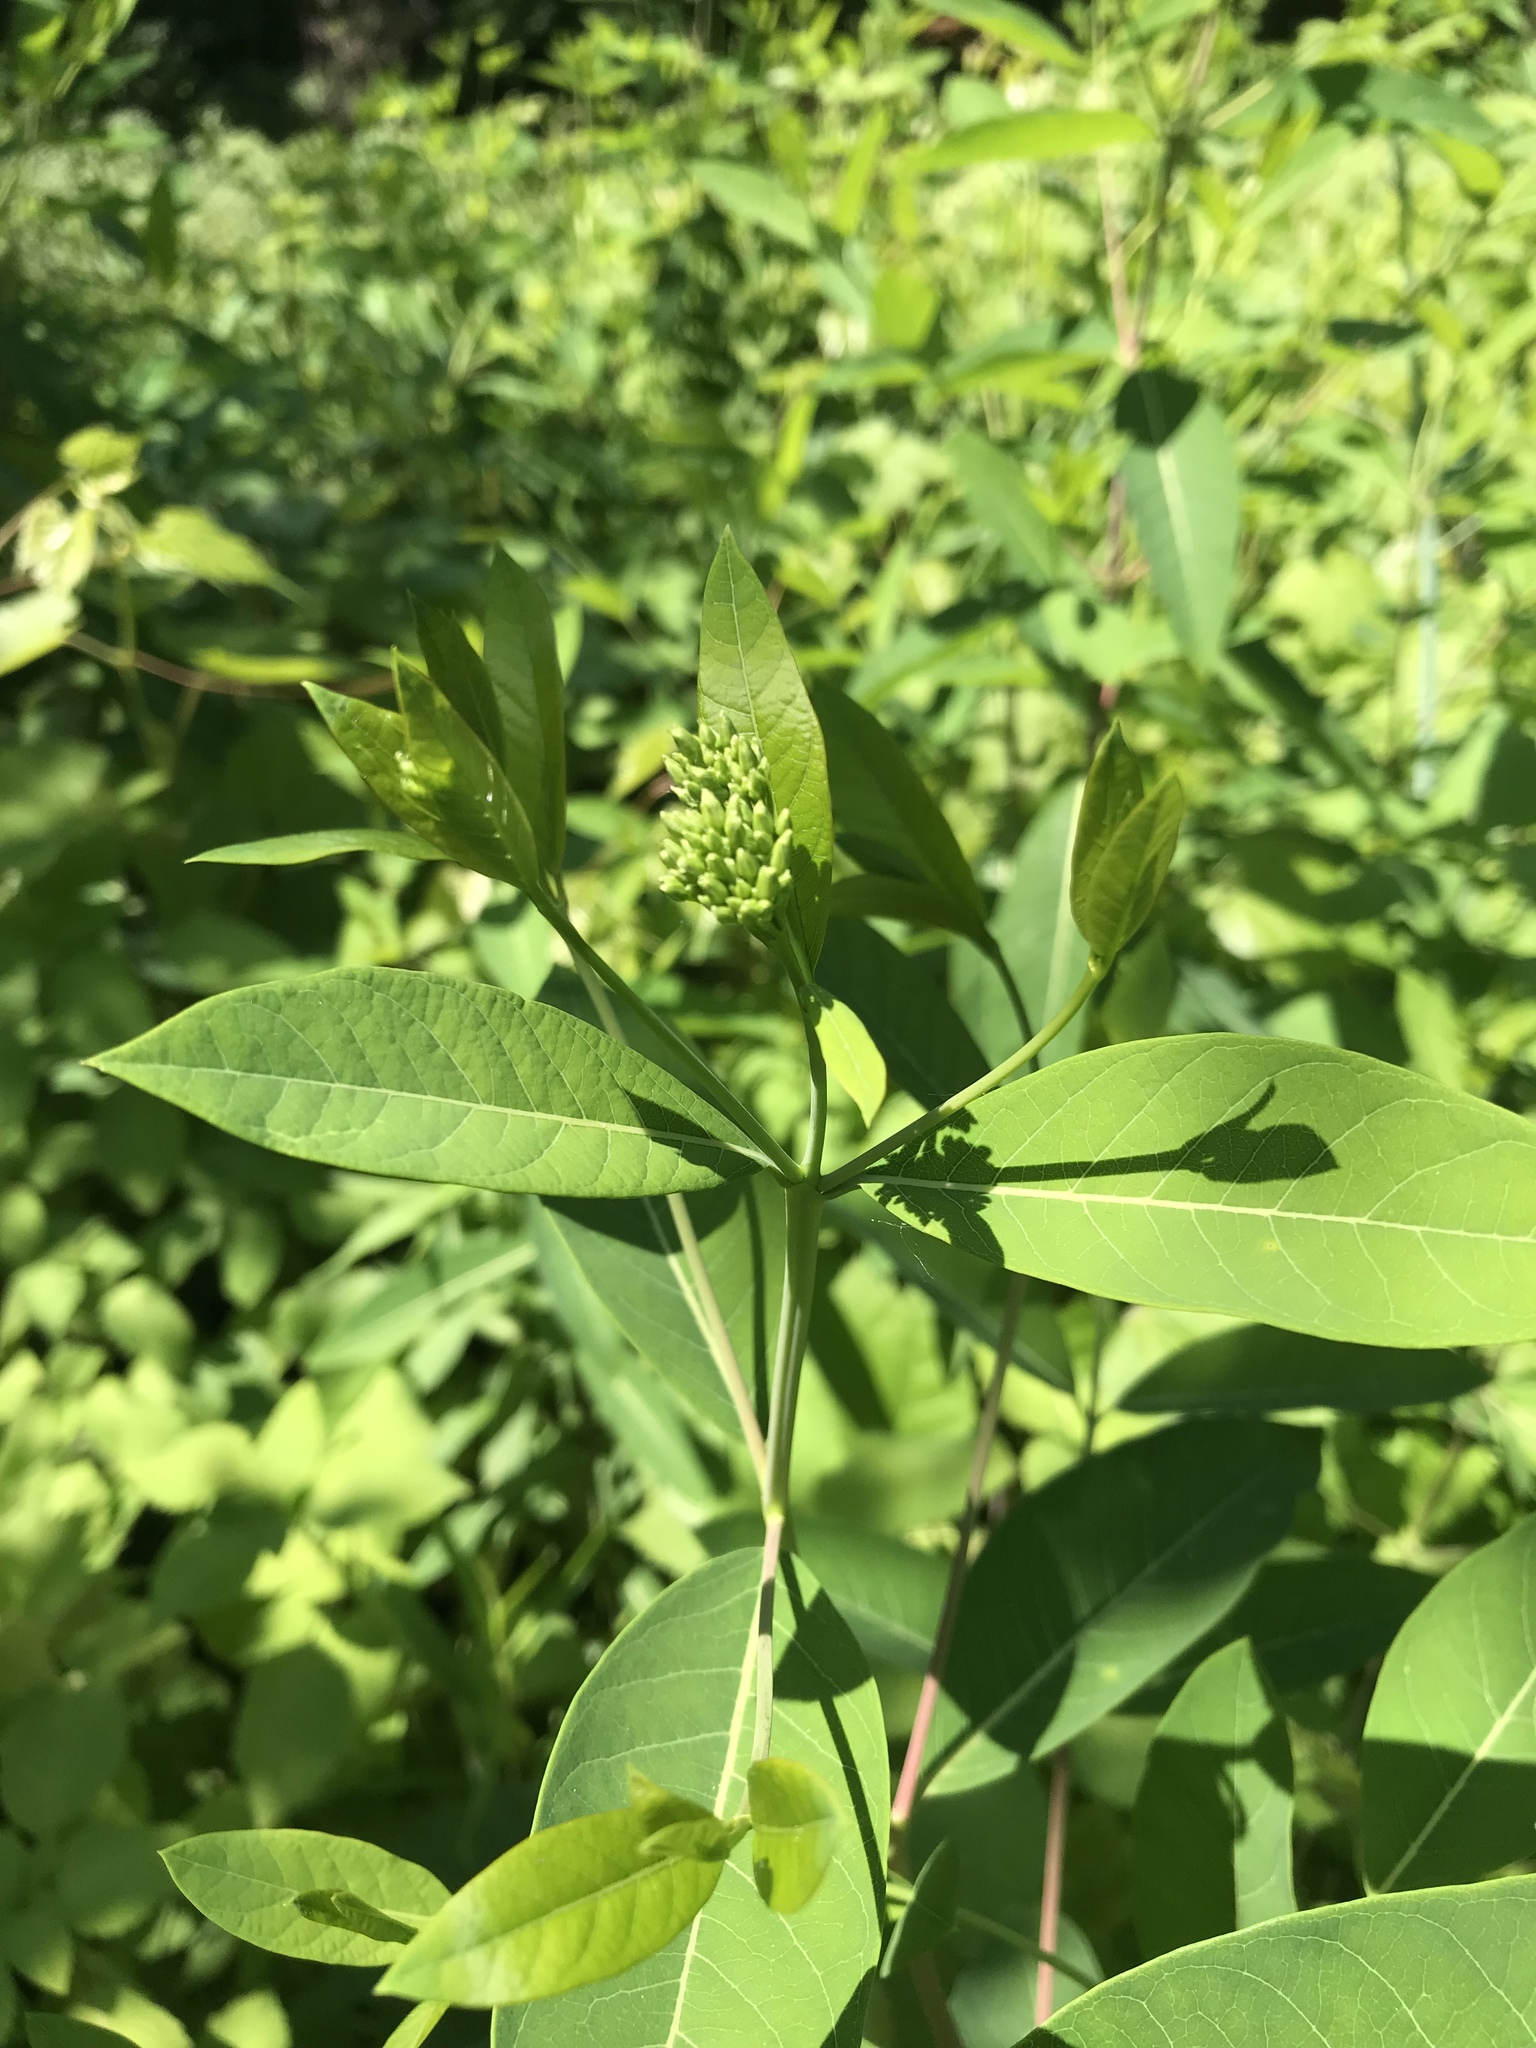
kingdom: Plantae
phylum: Tracheophyta
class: Magnoliopsida
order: Gentianales
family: Apocynaceae
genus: Apocynum
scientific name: Apocynum cannabinum
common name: Hemp dogbane
